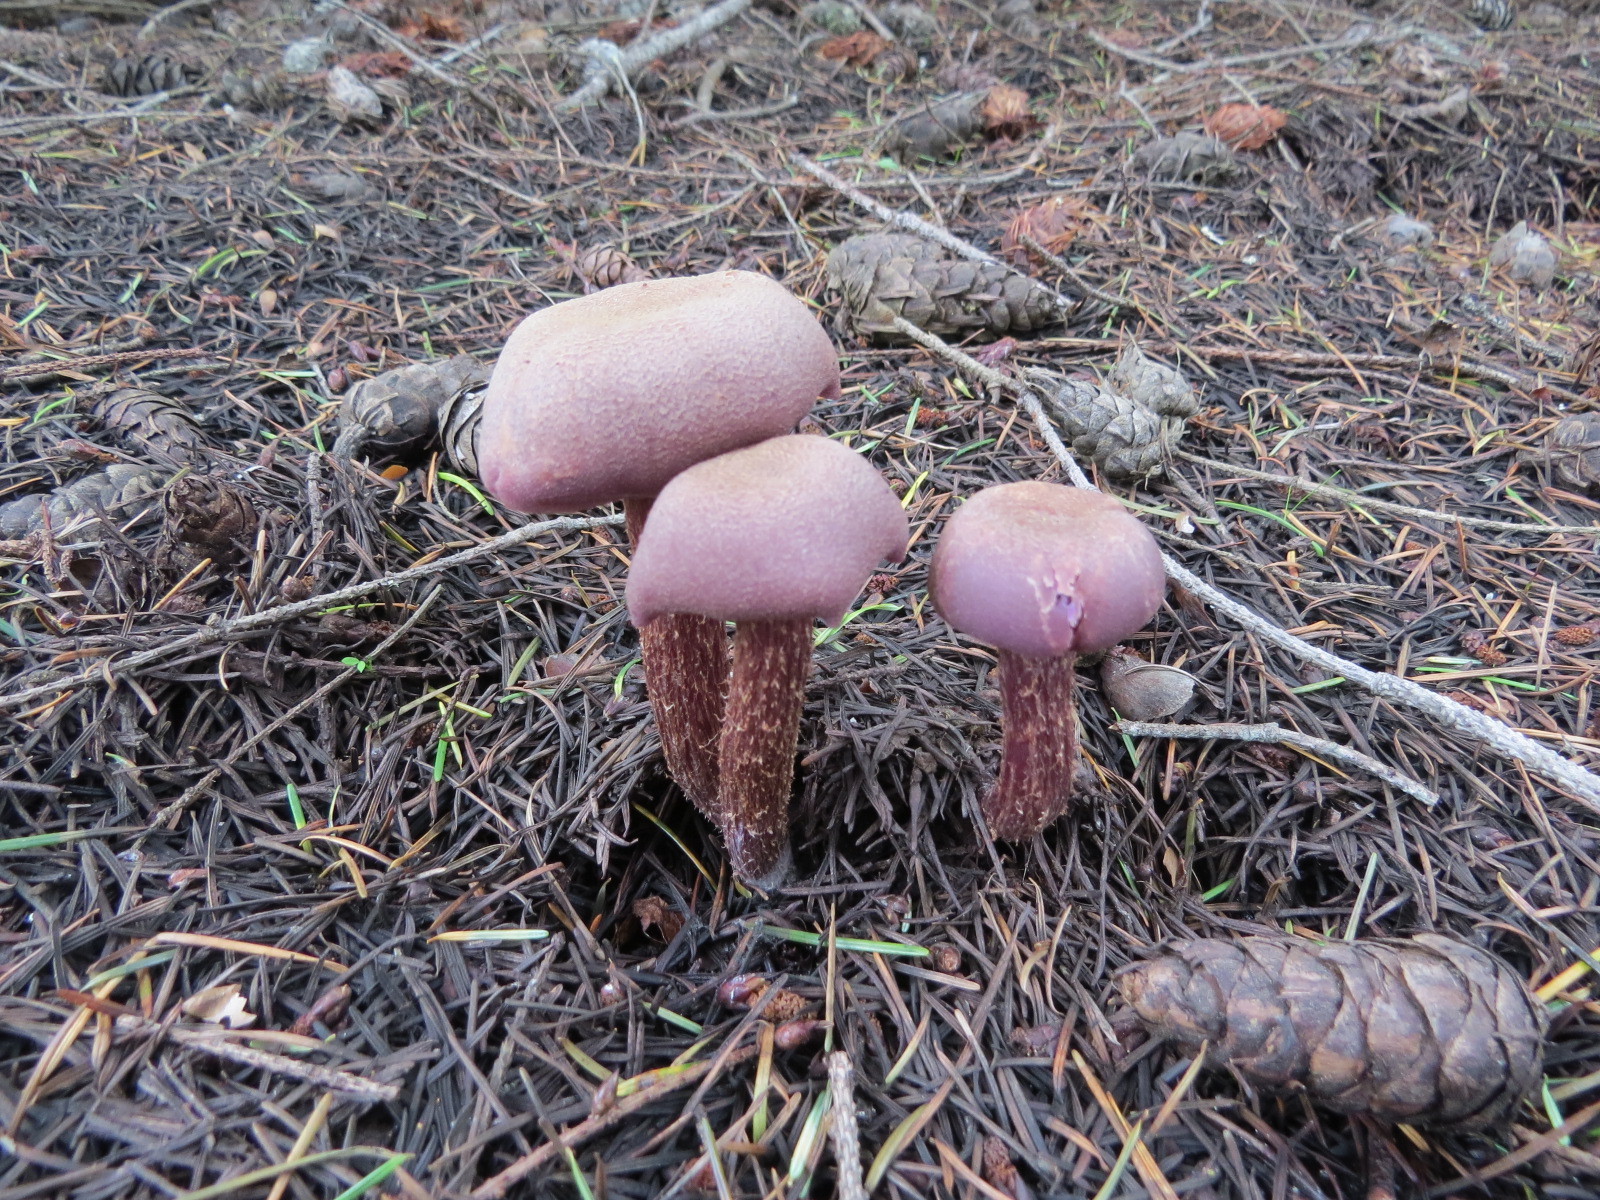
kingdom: Fungi
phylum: Basidiomycota
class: Agaricomycetes
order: Agaricales
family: Hydnangiaceae
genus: Laccaria
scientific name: Laccaria amethysteo-occidentalis
